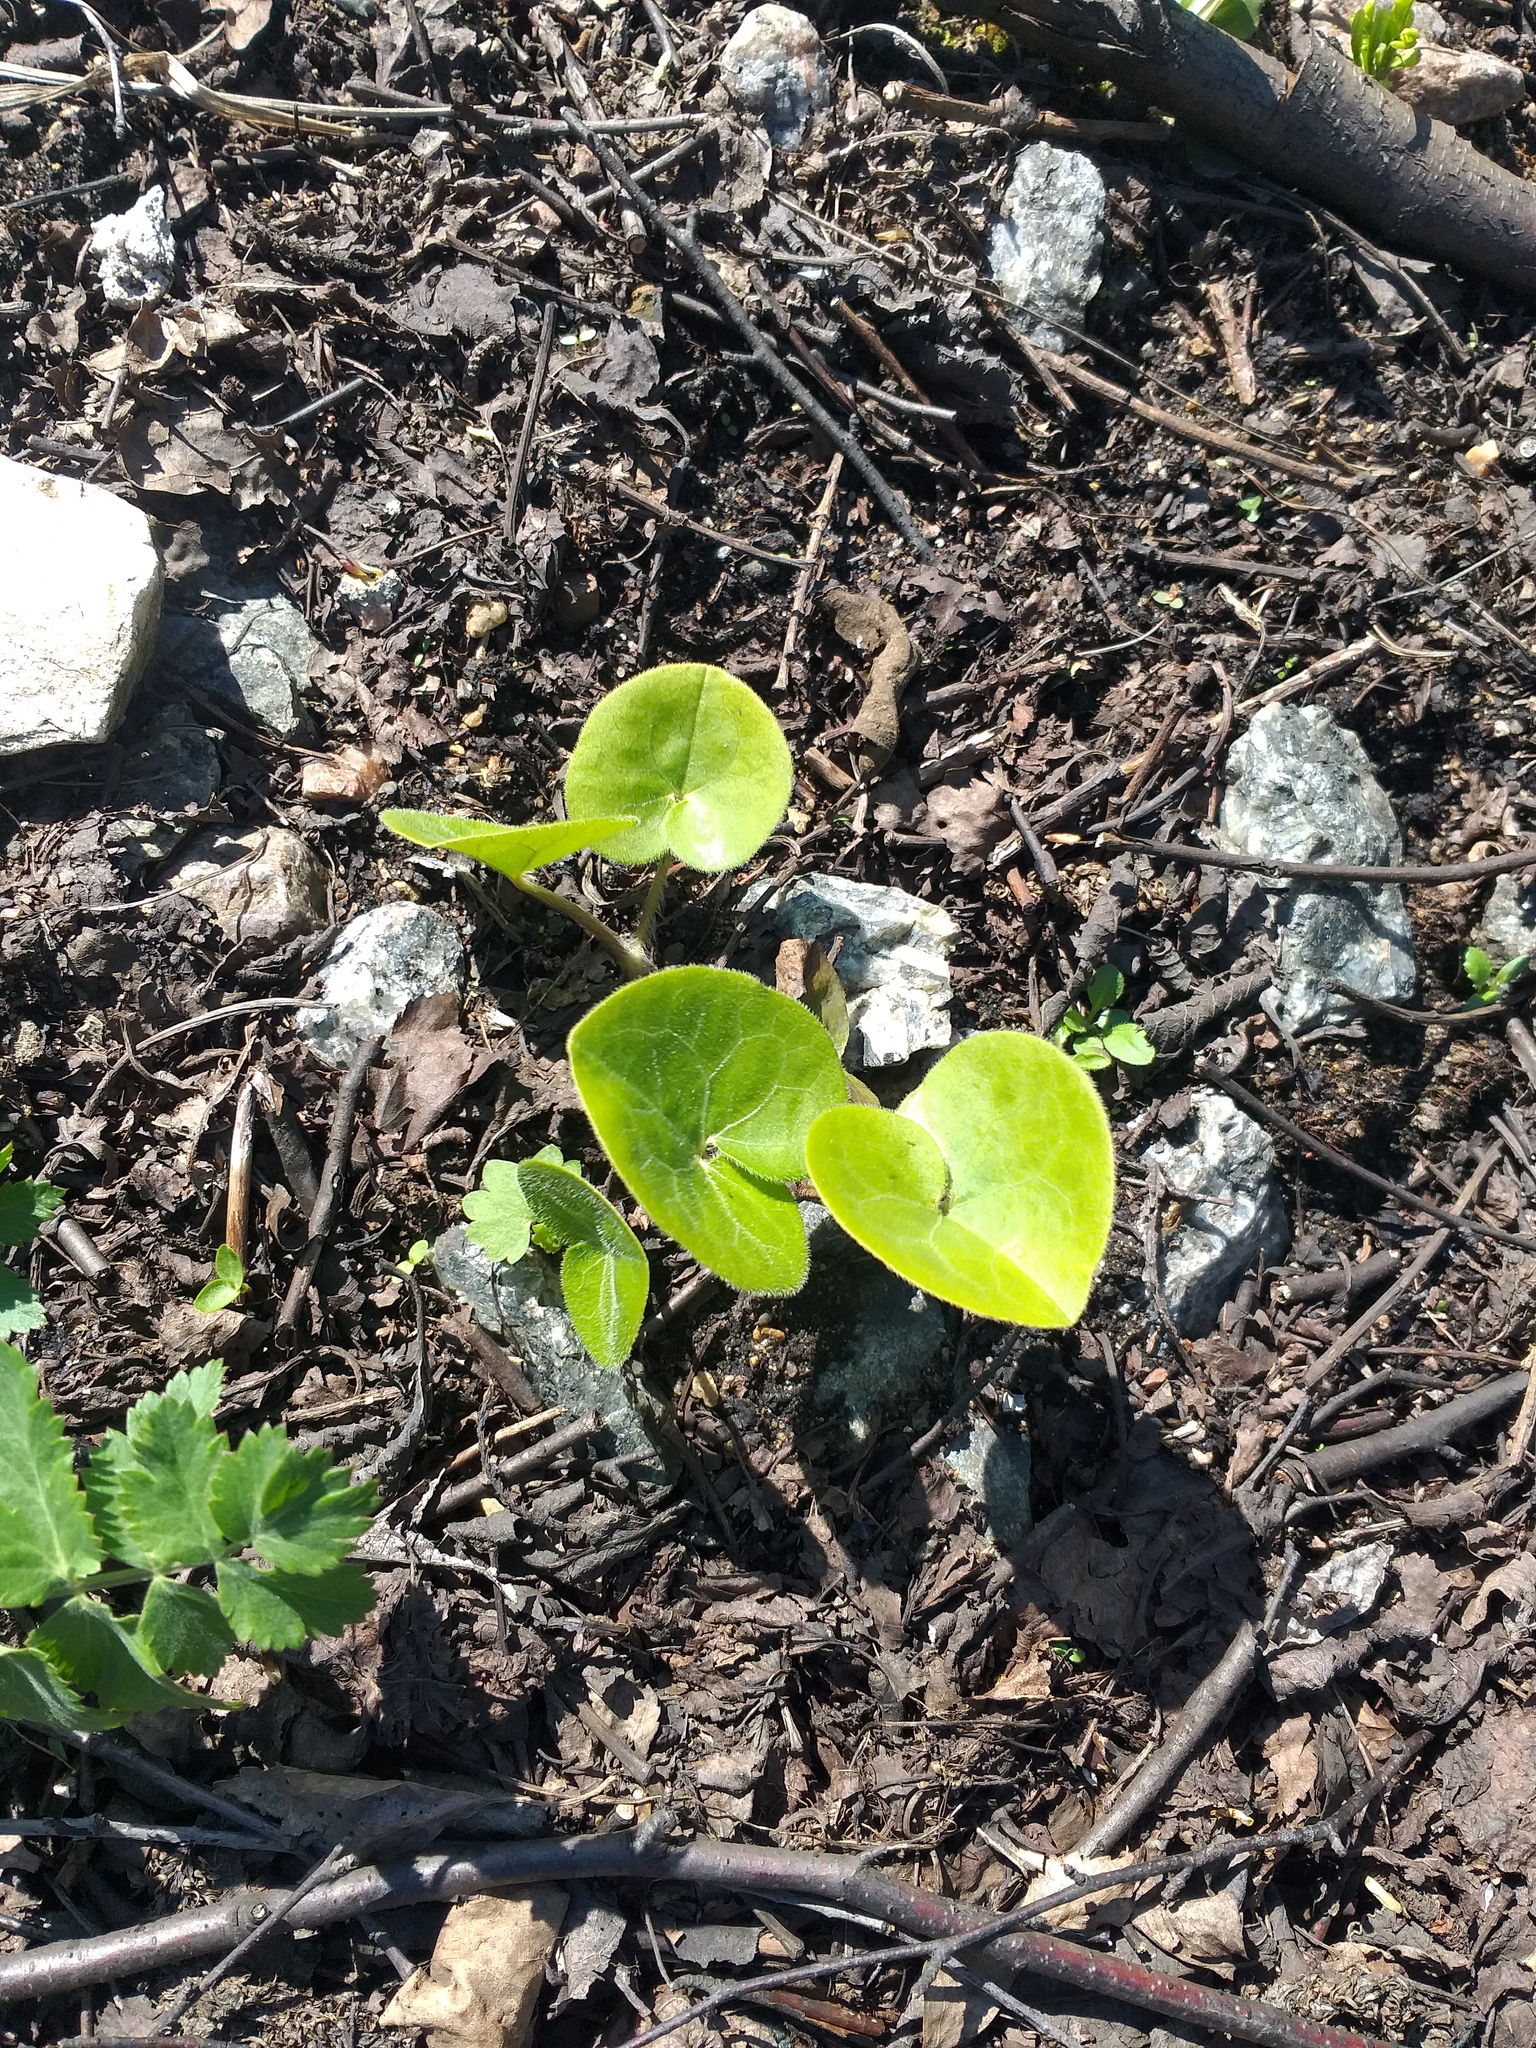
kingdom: Plantae
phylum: Tracheophyta
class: Magnoliopsida
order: Piperales
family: Aristolochiaceae
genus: Asarum
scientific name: Asarum europaeum
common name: Asarabacca
